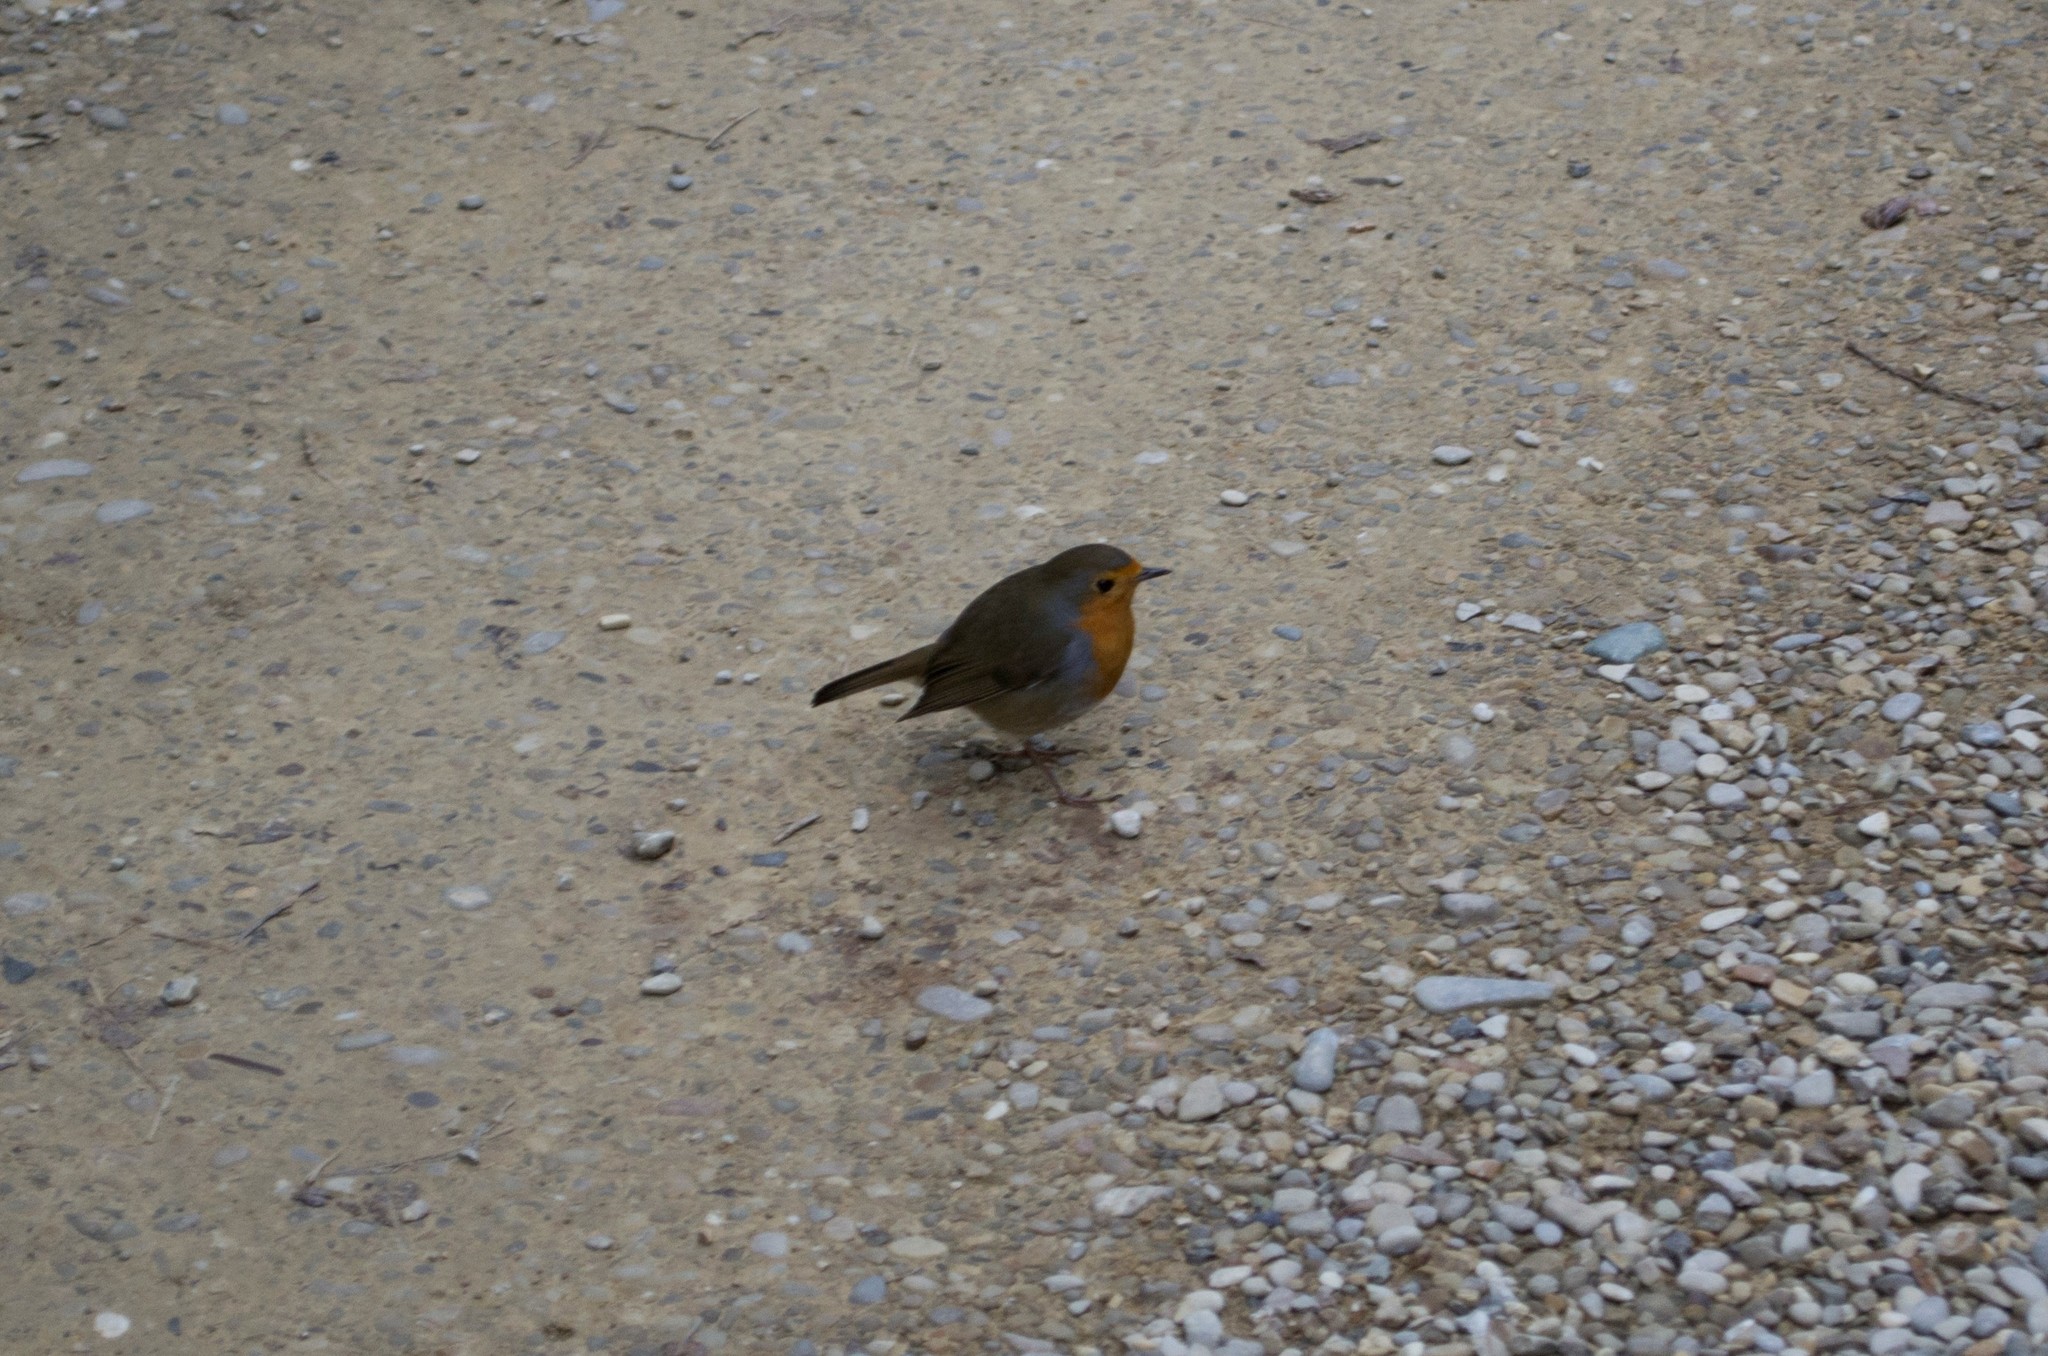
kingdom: Animalia
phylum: Chordata
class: Aves
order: Passeriformes
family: Muscicapidae
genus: Erithacus
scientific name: Erithacus rubecula
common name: European robin
